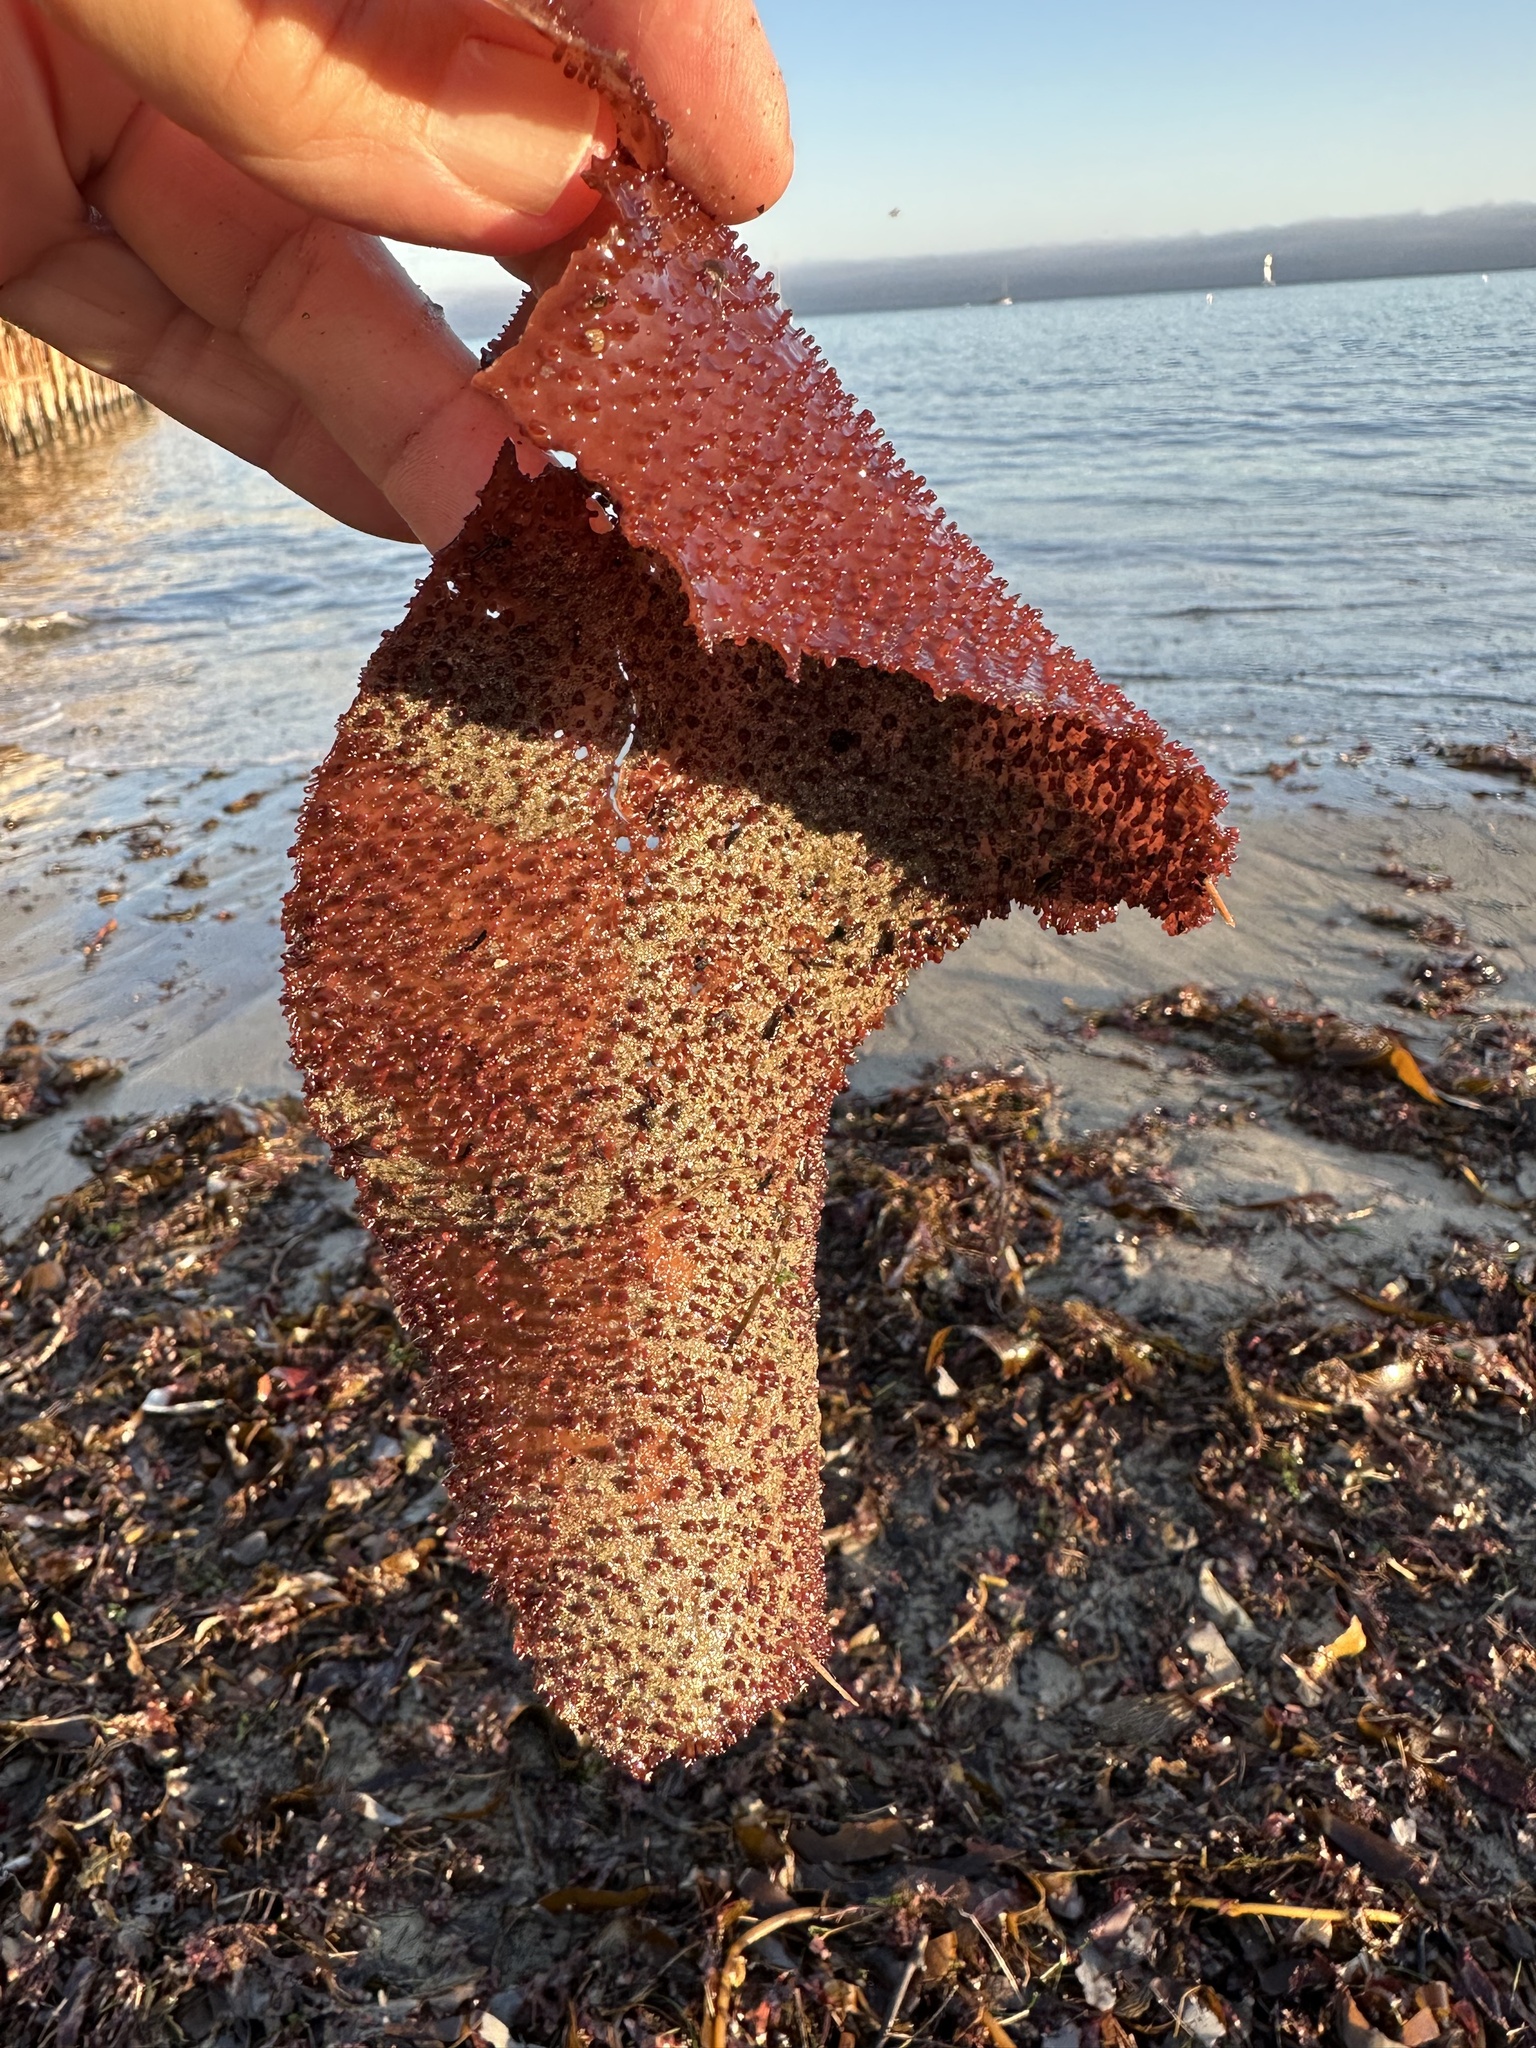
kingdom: Plantae
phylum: Rhodophyta
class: Florideophyceae
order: Gigartinales
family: Gigartinaceae
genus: Chondracanthus
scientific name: Chondracanthus exasperatus
